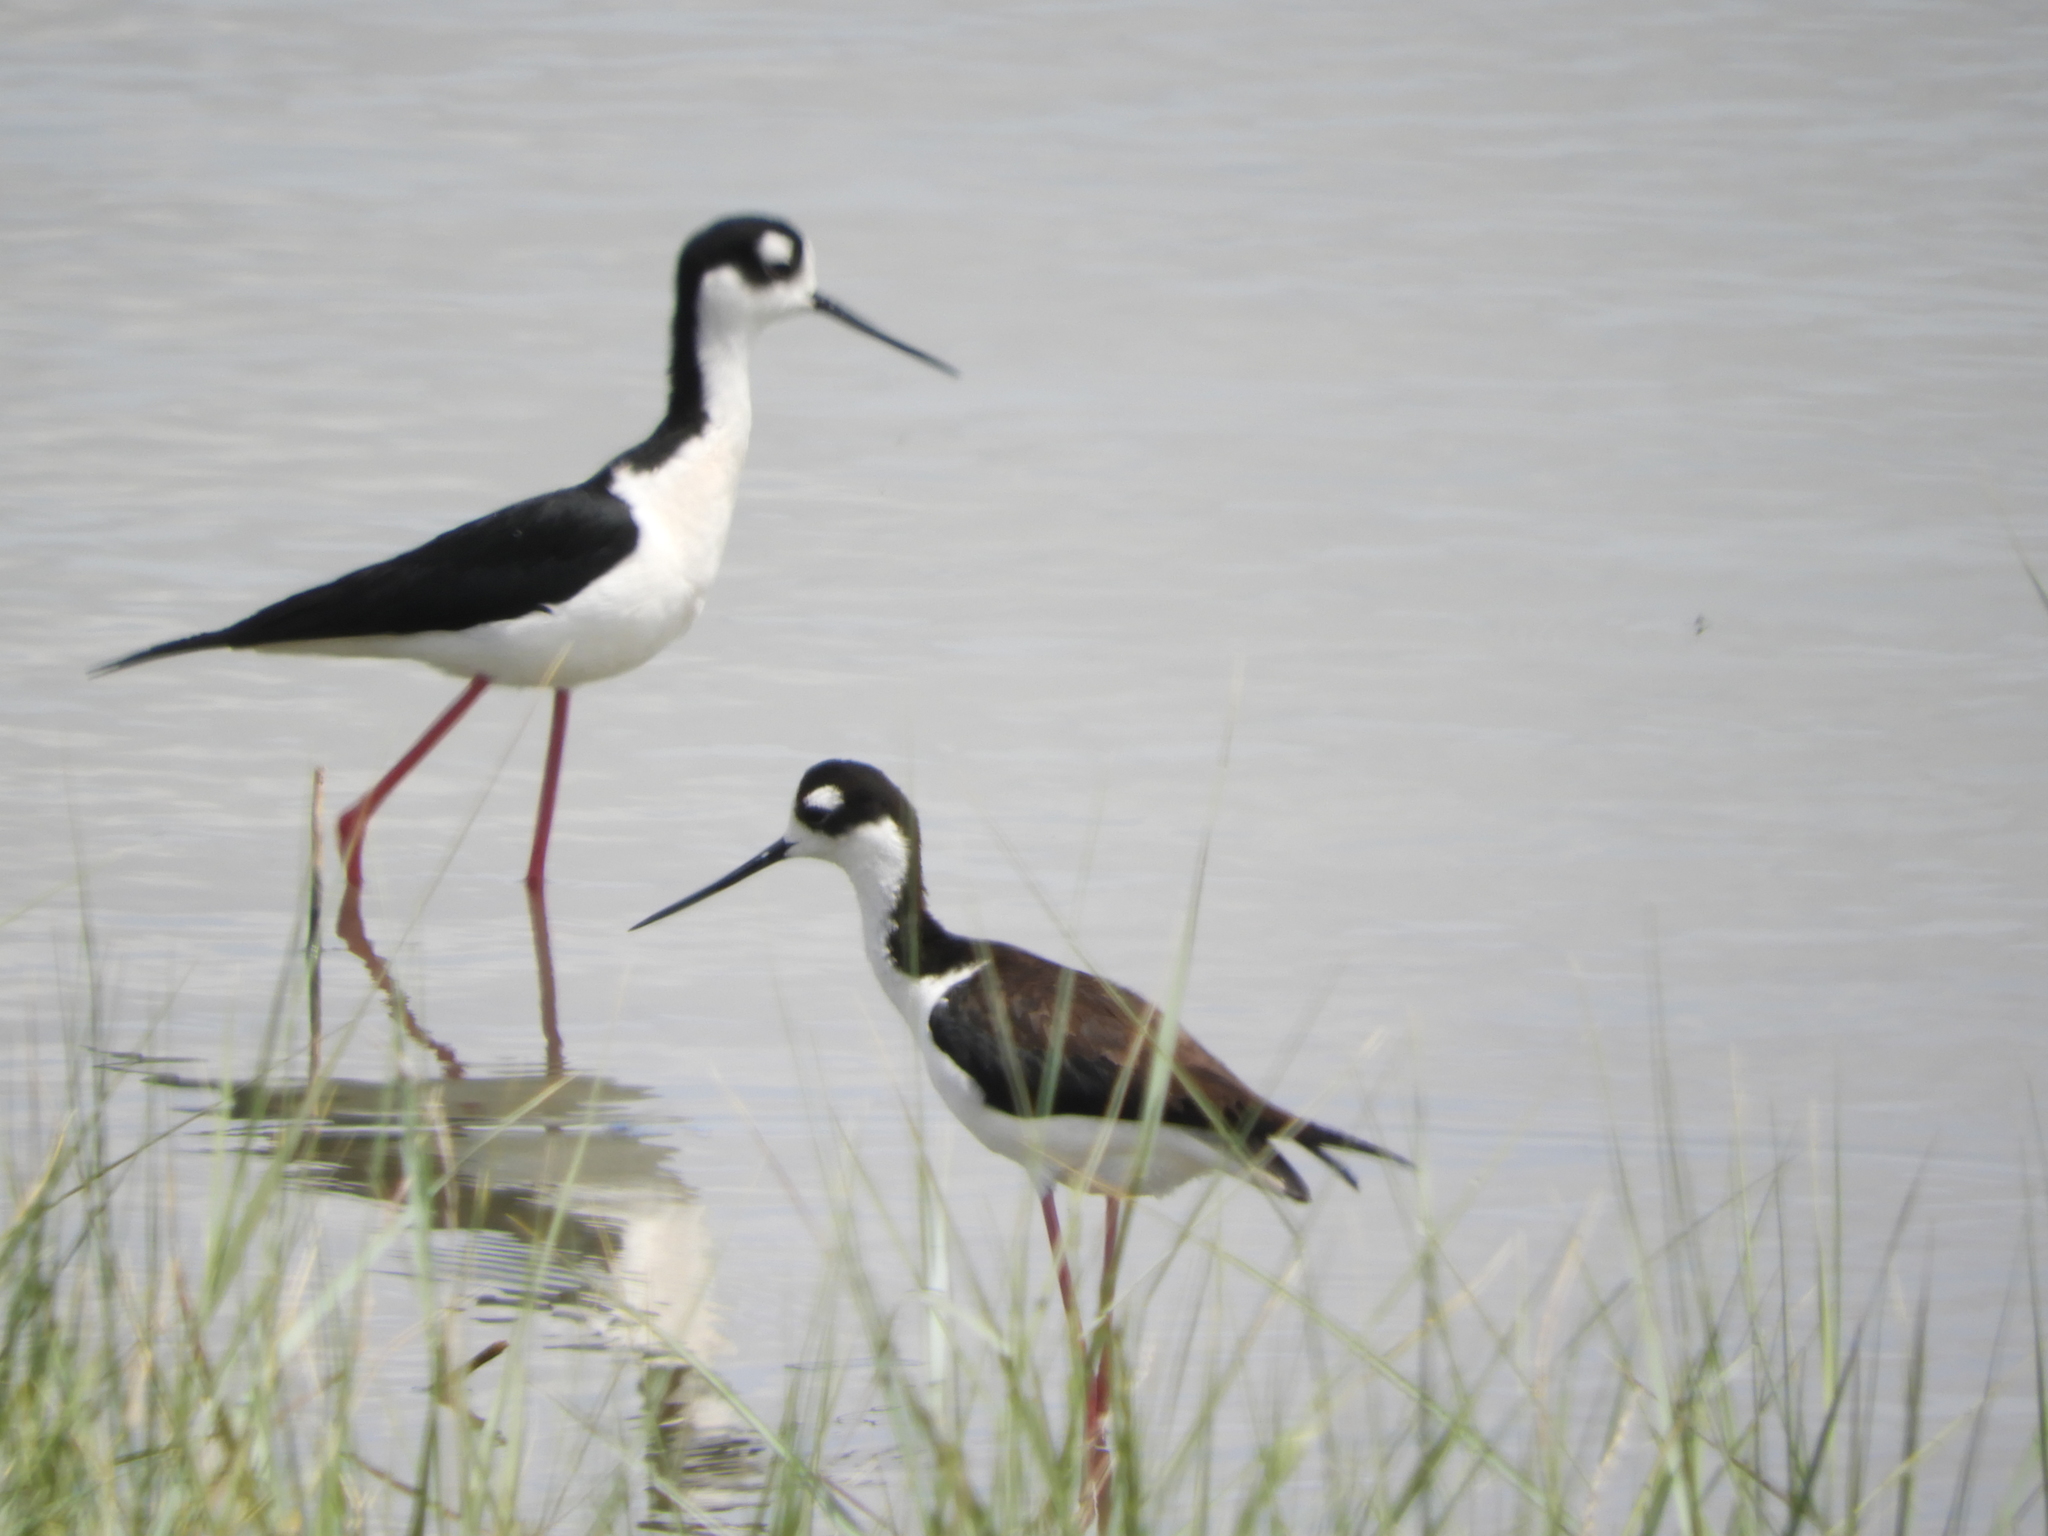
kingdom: Animalia
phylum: Chordata
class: Aves
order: Charadriiformes
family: Recurvirostridae
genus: Himantopus
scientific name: Himantopus mexicanus
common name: Black-necked stilt
